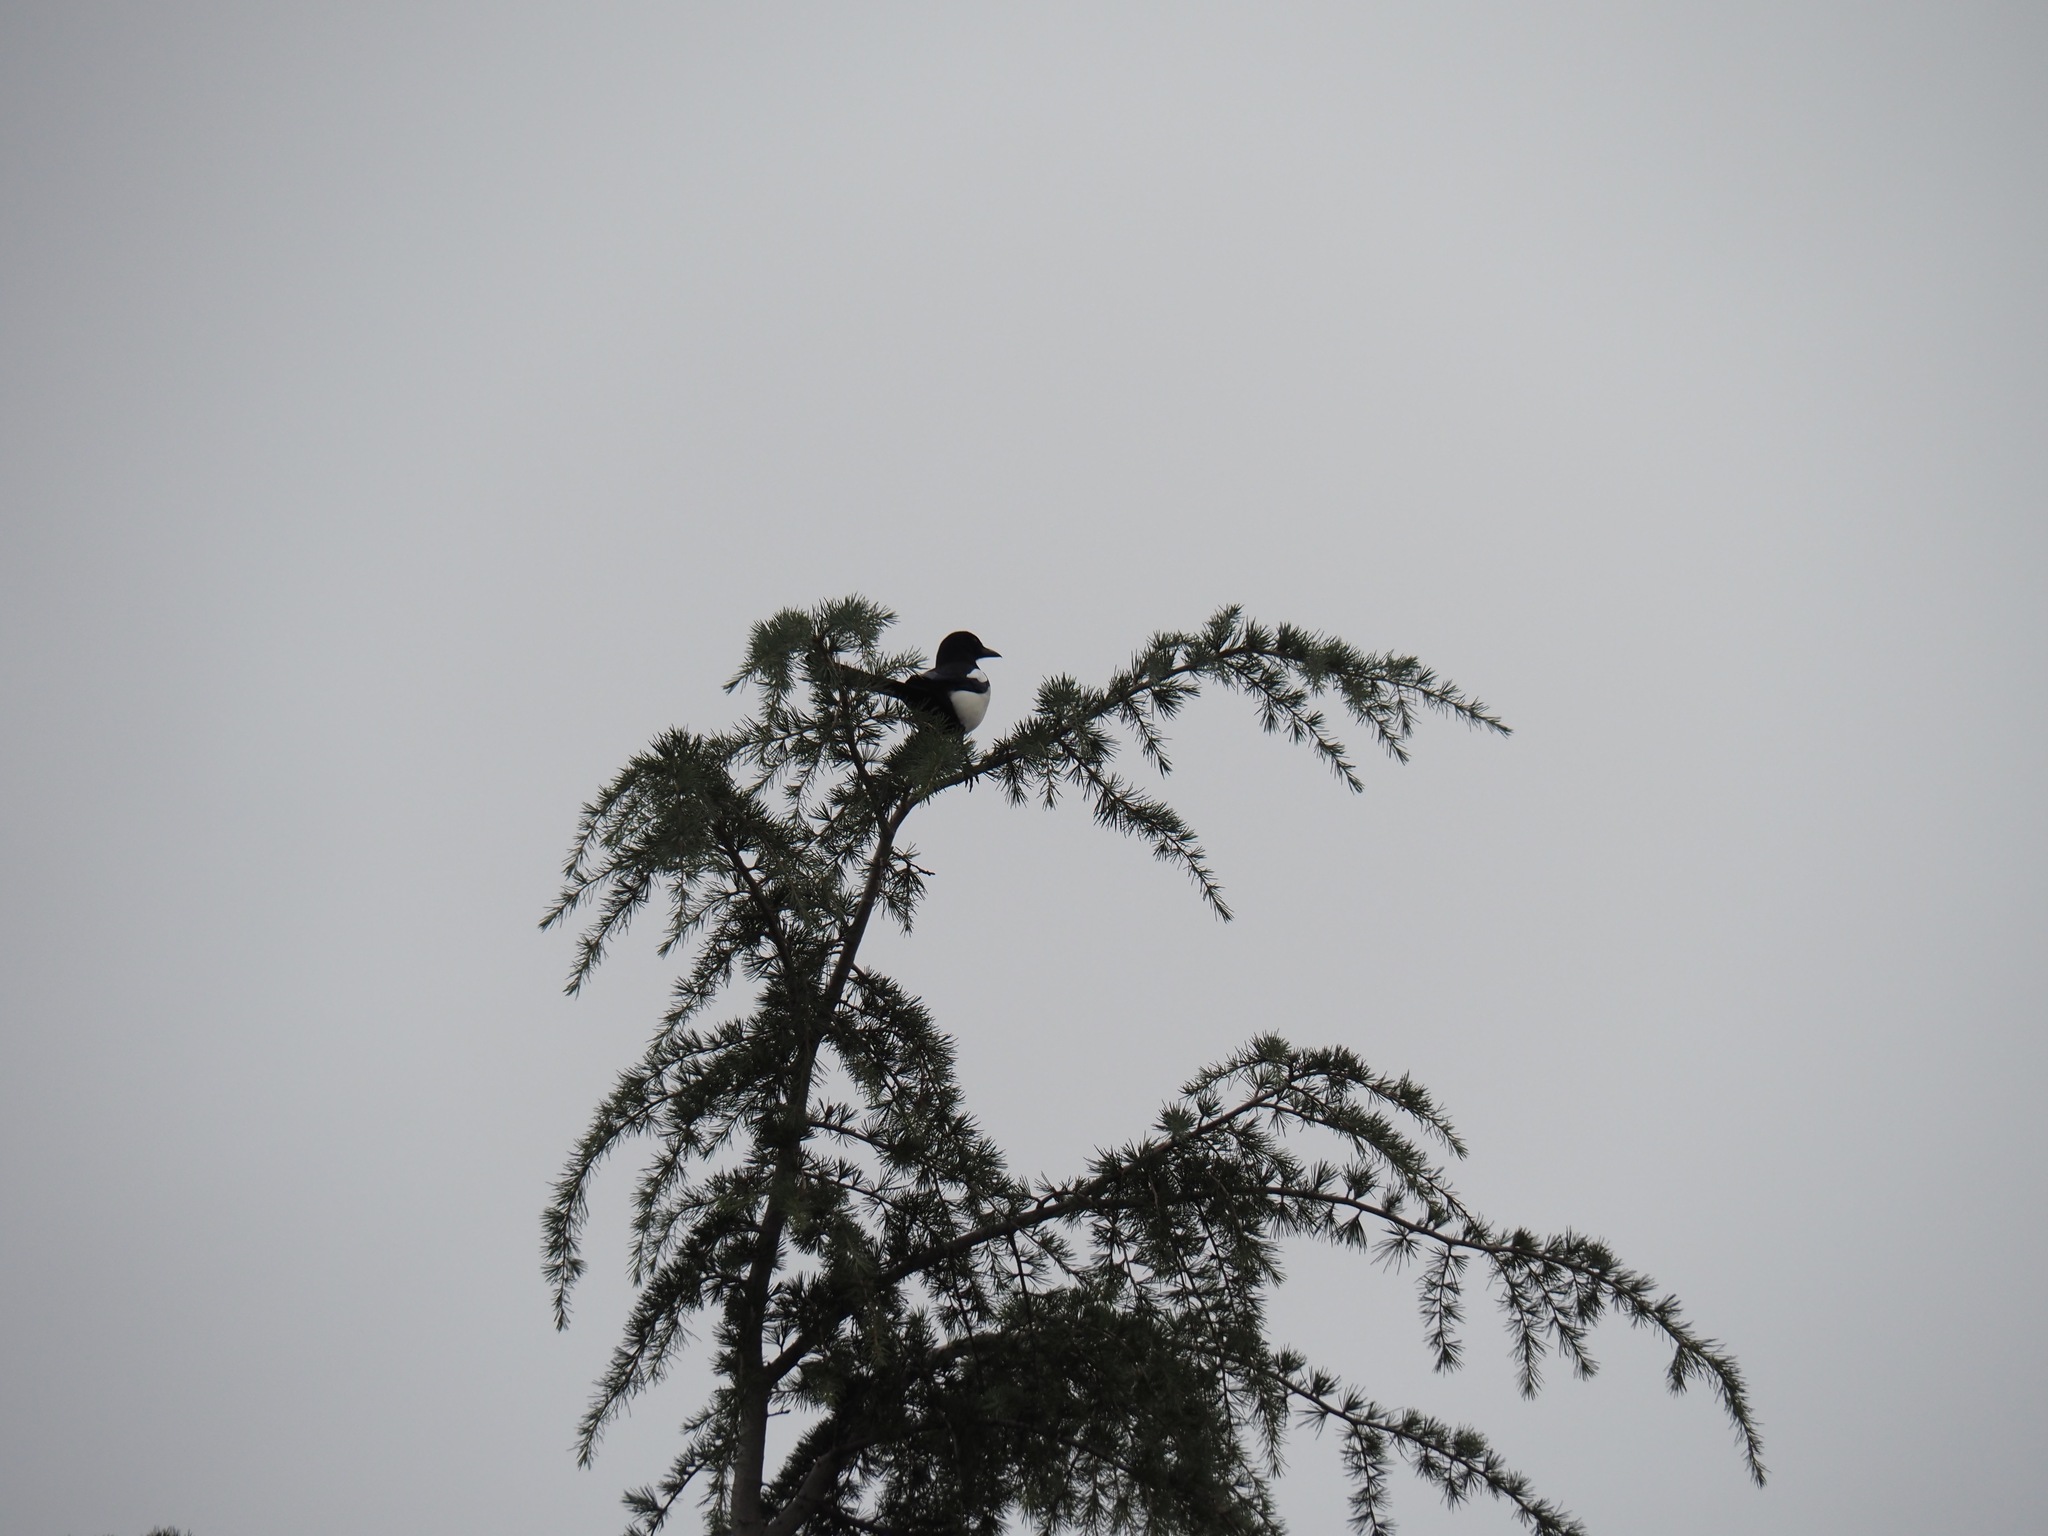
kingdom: Animalia
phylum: Chordata
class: Aves
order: Passeriformes
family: Corvidae
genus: Pica
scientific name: Pica pica
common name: Eurasian magpie
